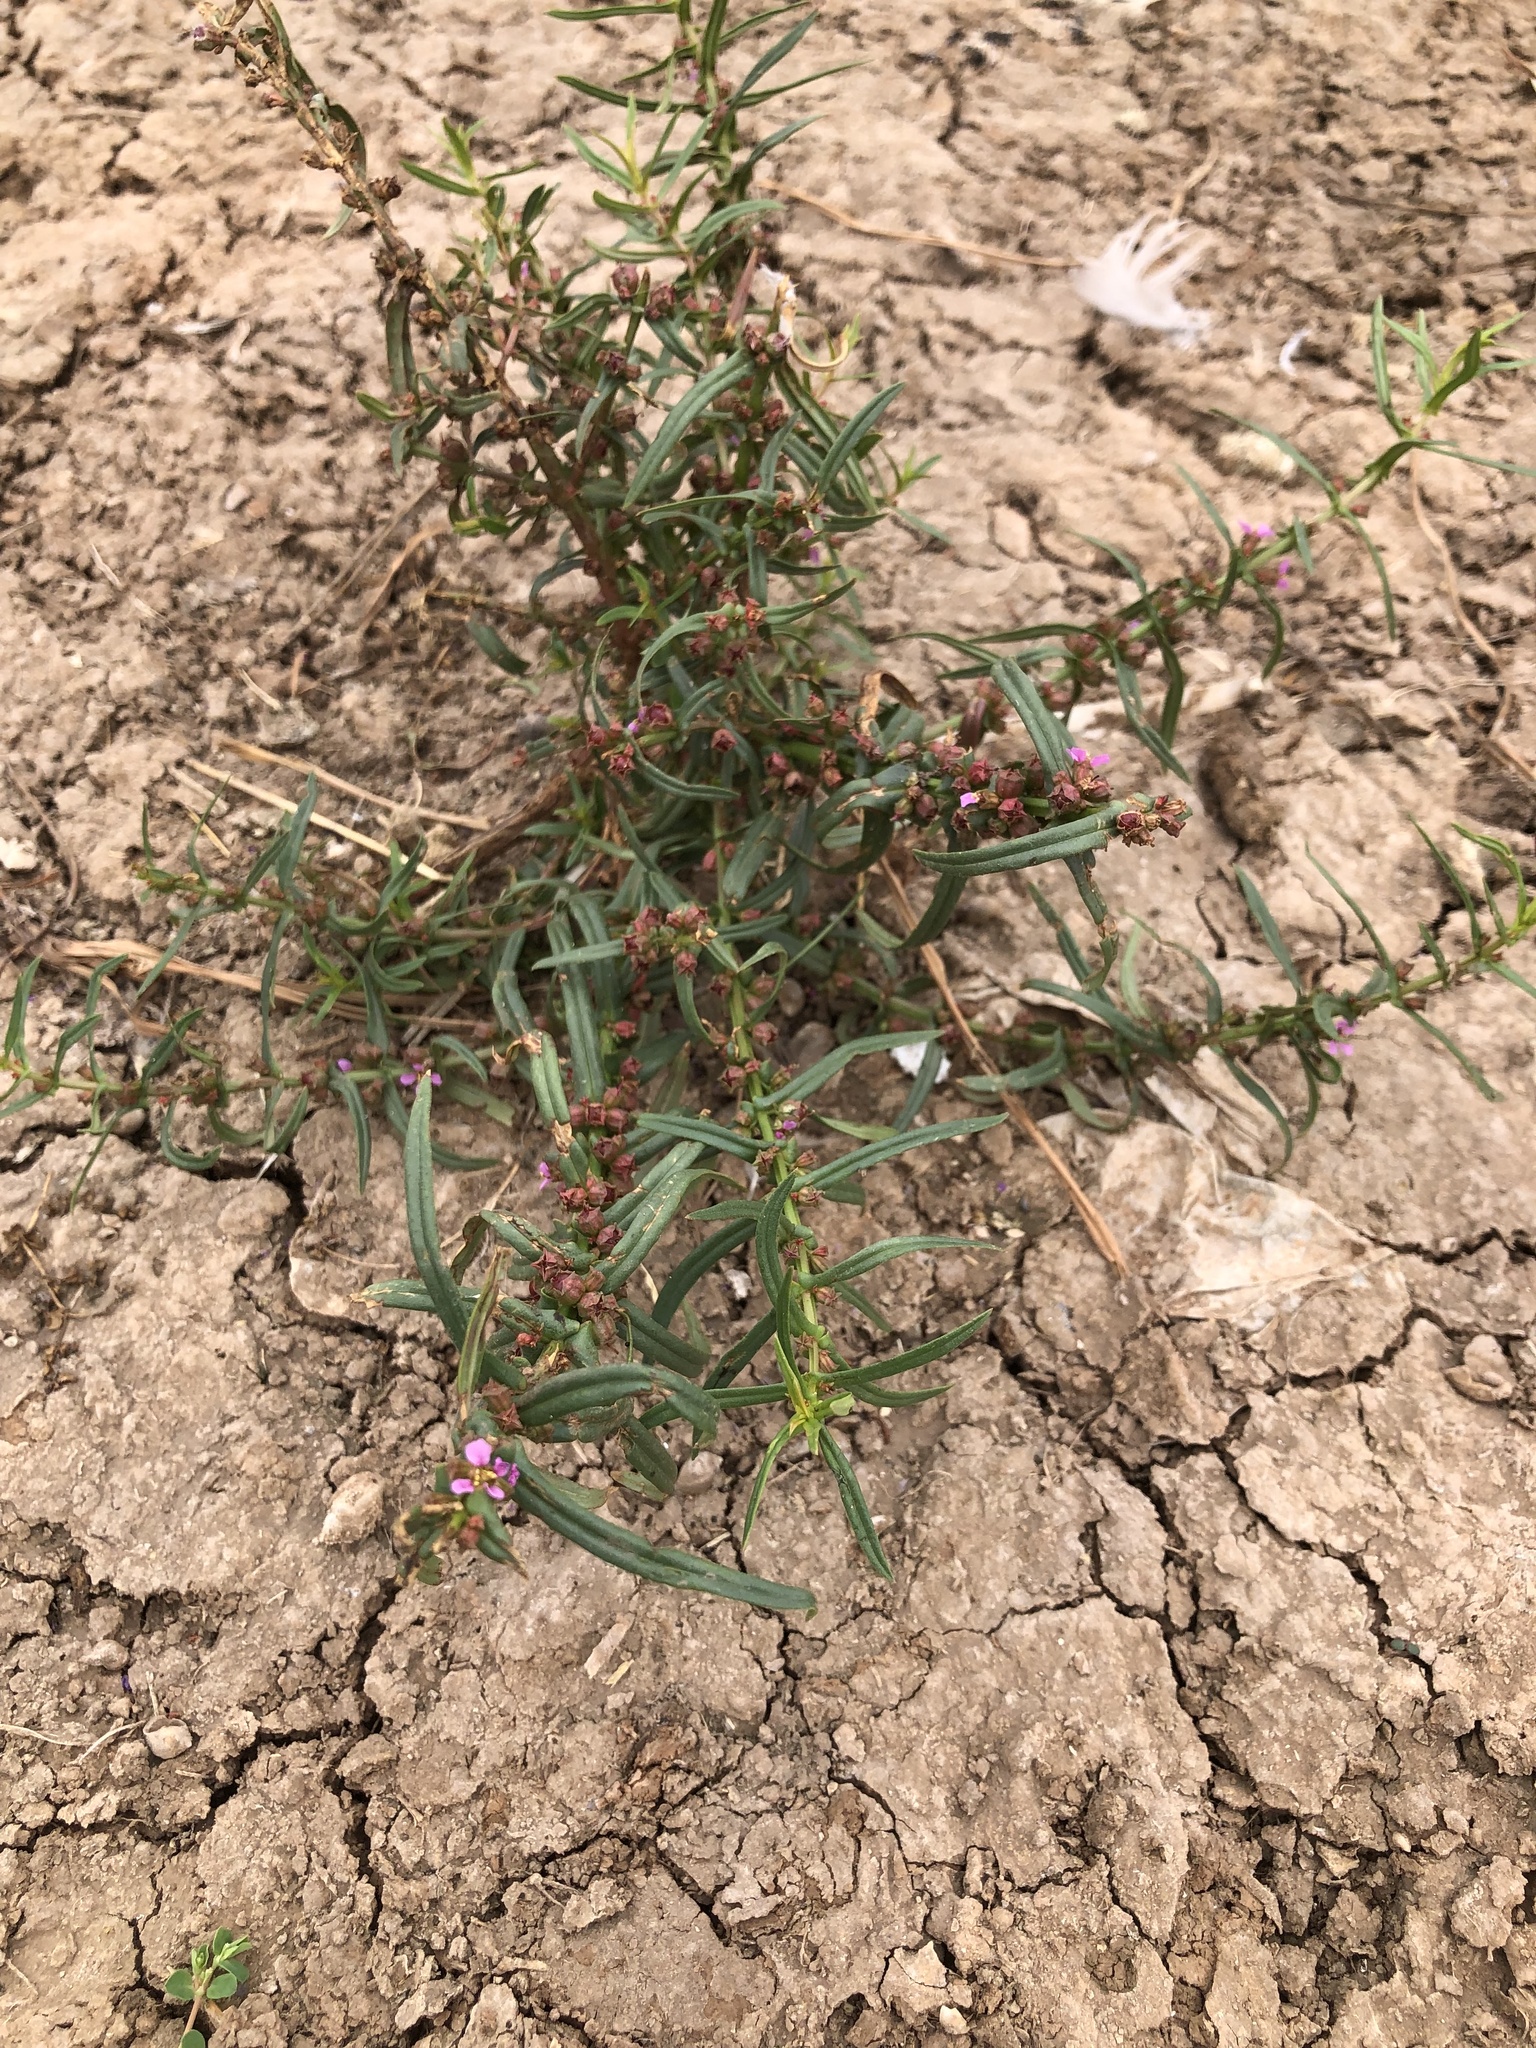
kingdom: Plantae
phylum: Tracheophyta
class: Magnoliopsida
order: Myrtales
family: Lythraceae
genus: Ammannia
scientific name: Ammannia coccinea
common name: Valley redstem
